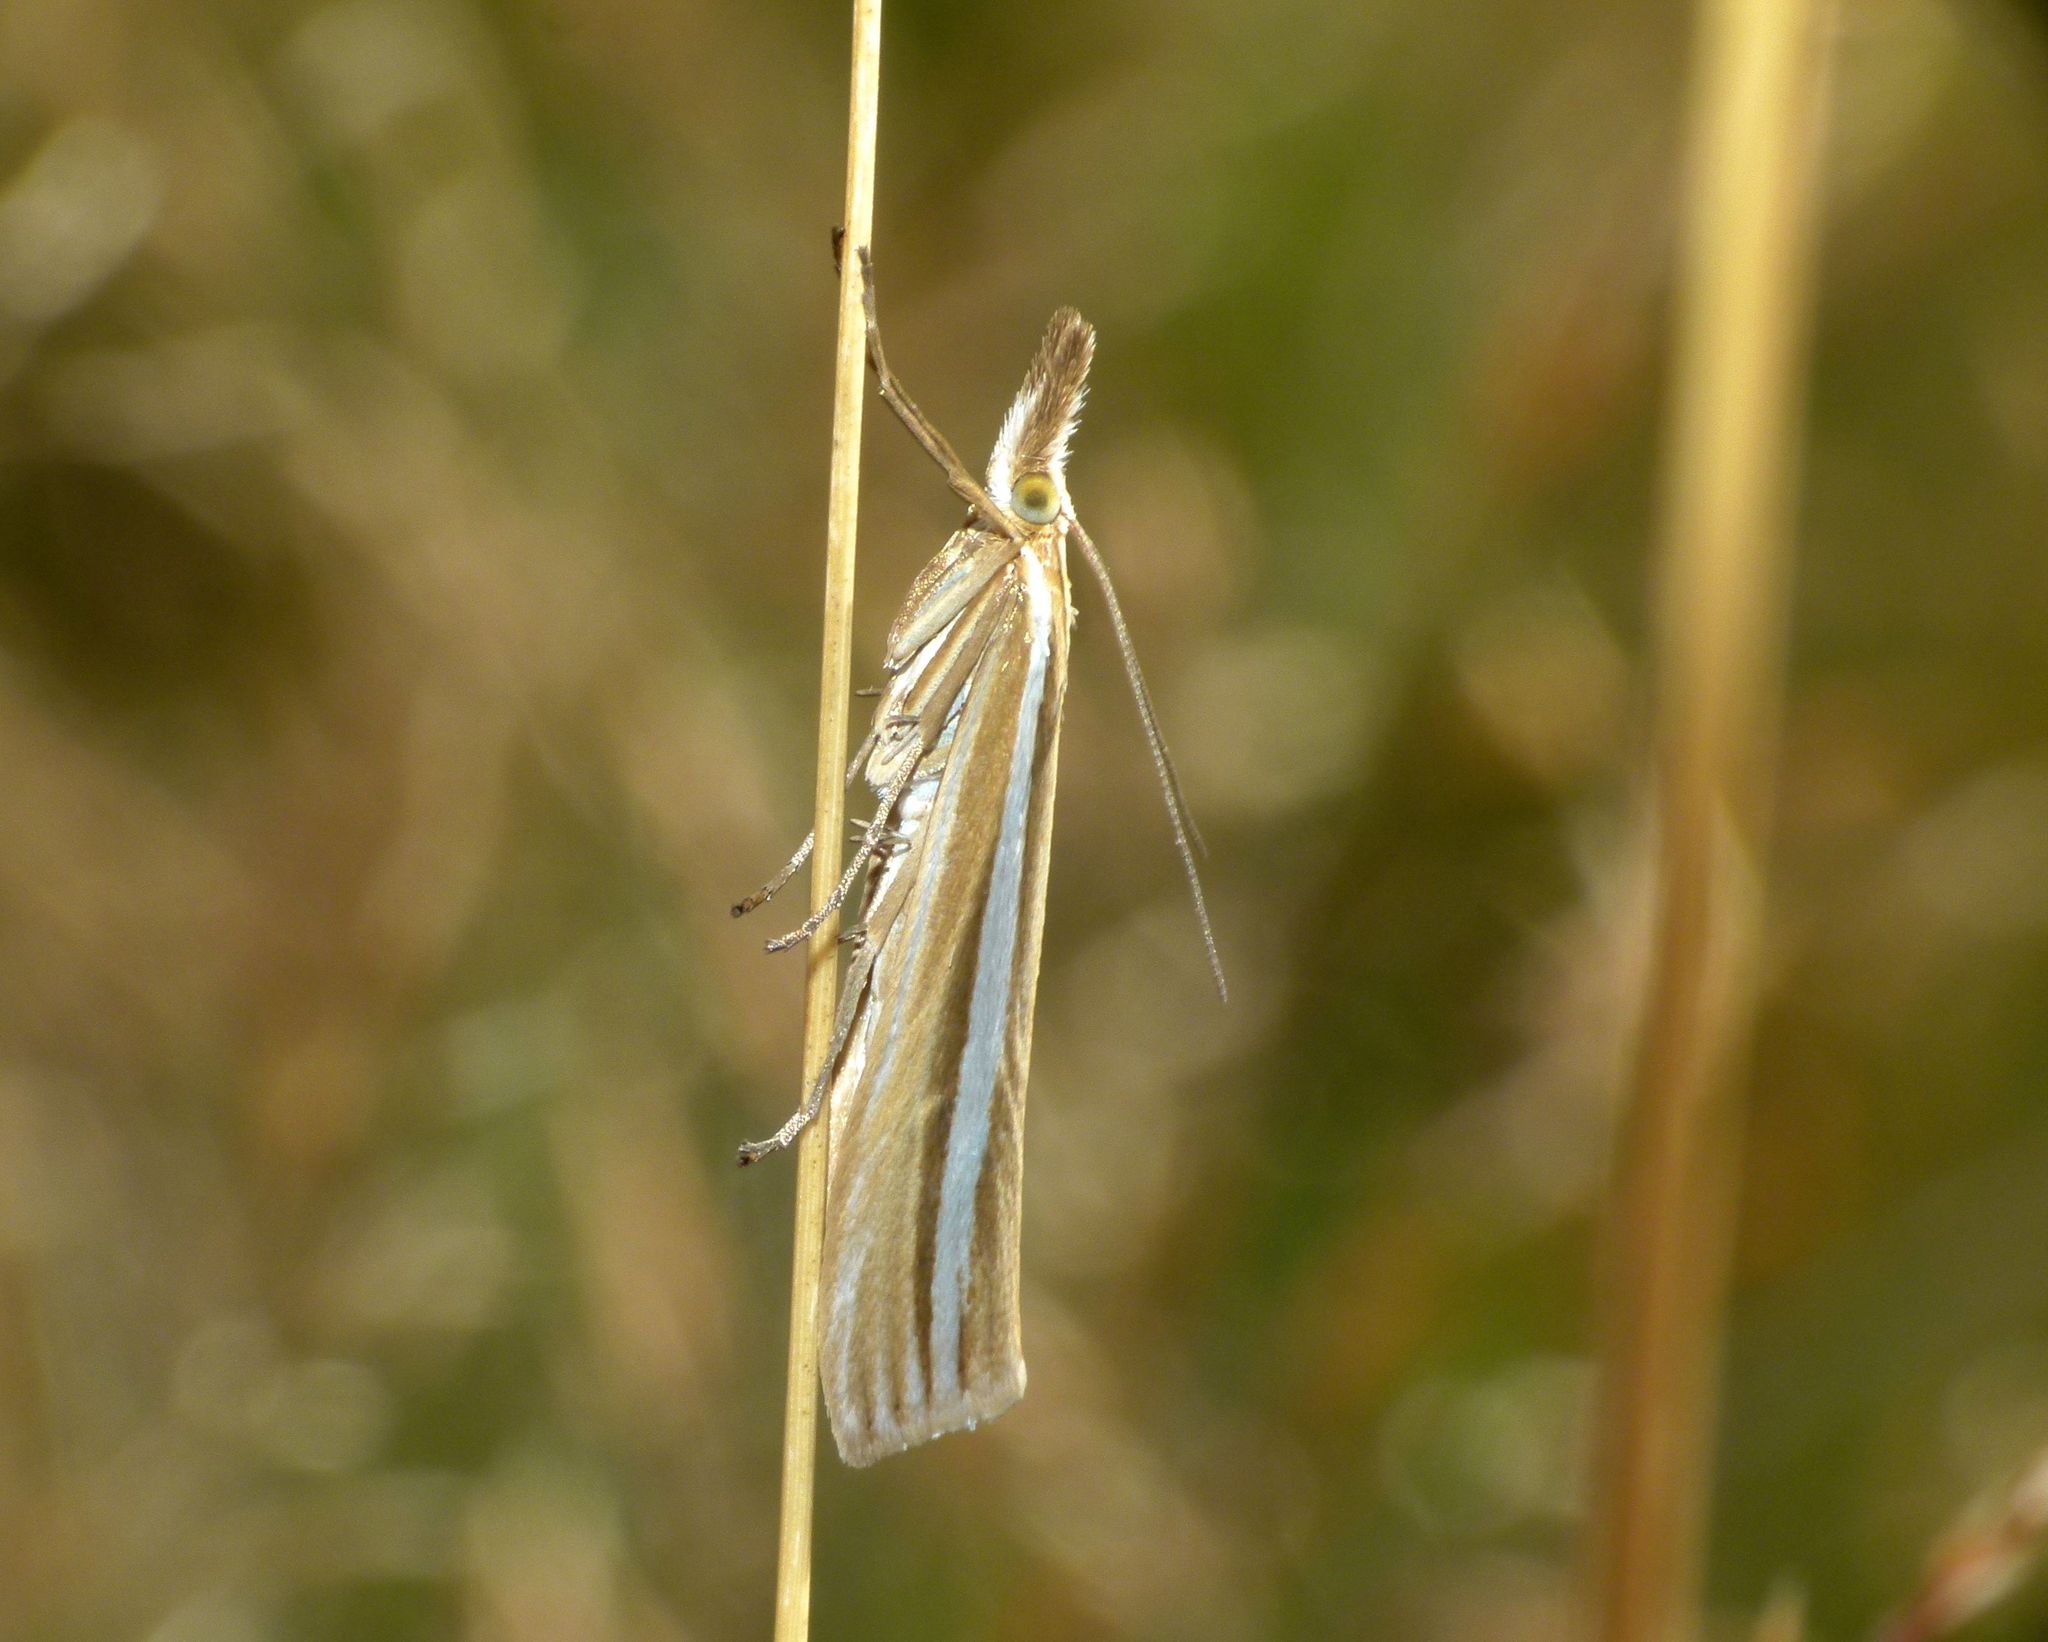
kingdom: Animalia
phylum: Arthropoda
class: Insecta
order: Lepidoptera
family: Crambidae
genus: Orocrambus
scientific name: Orocrambus lewisi
